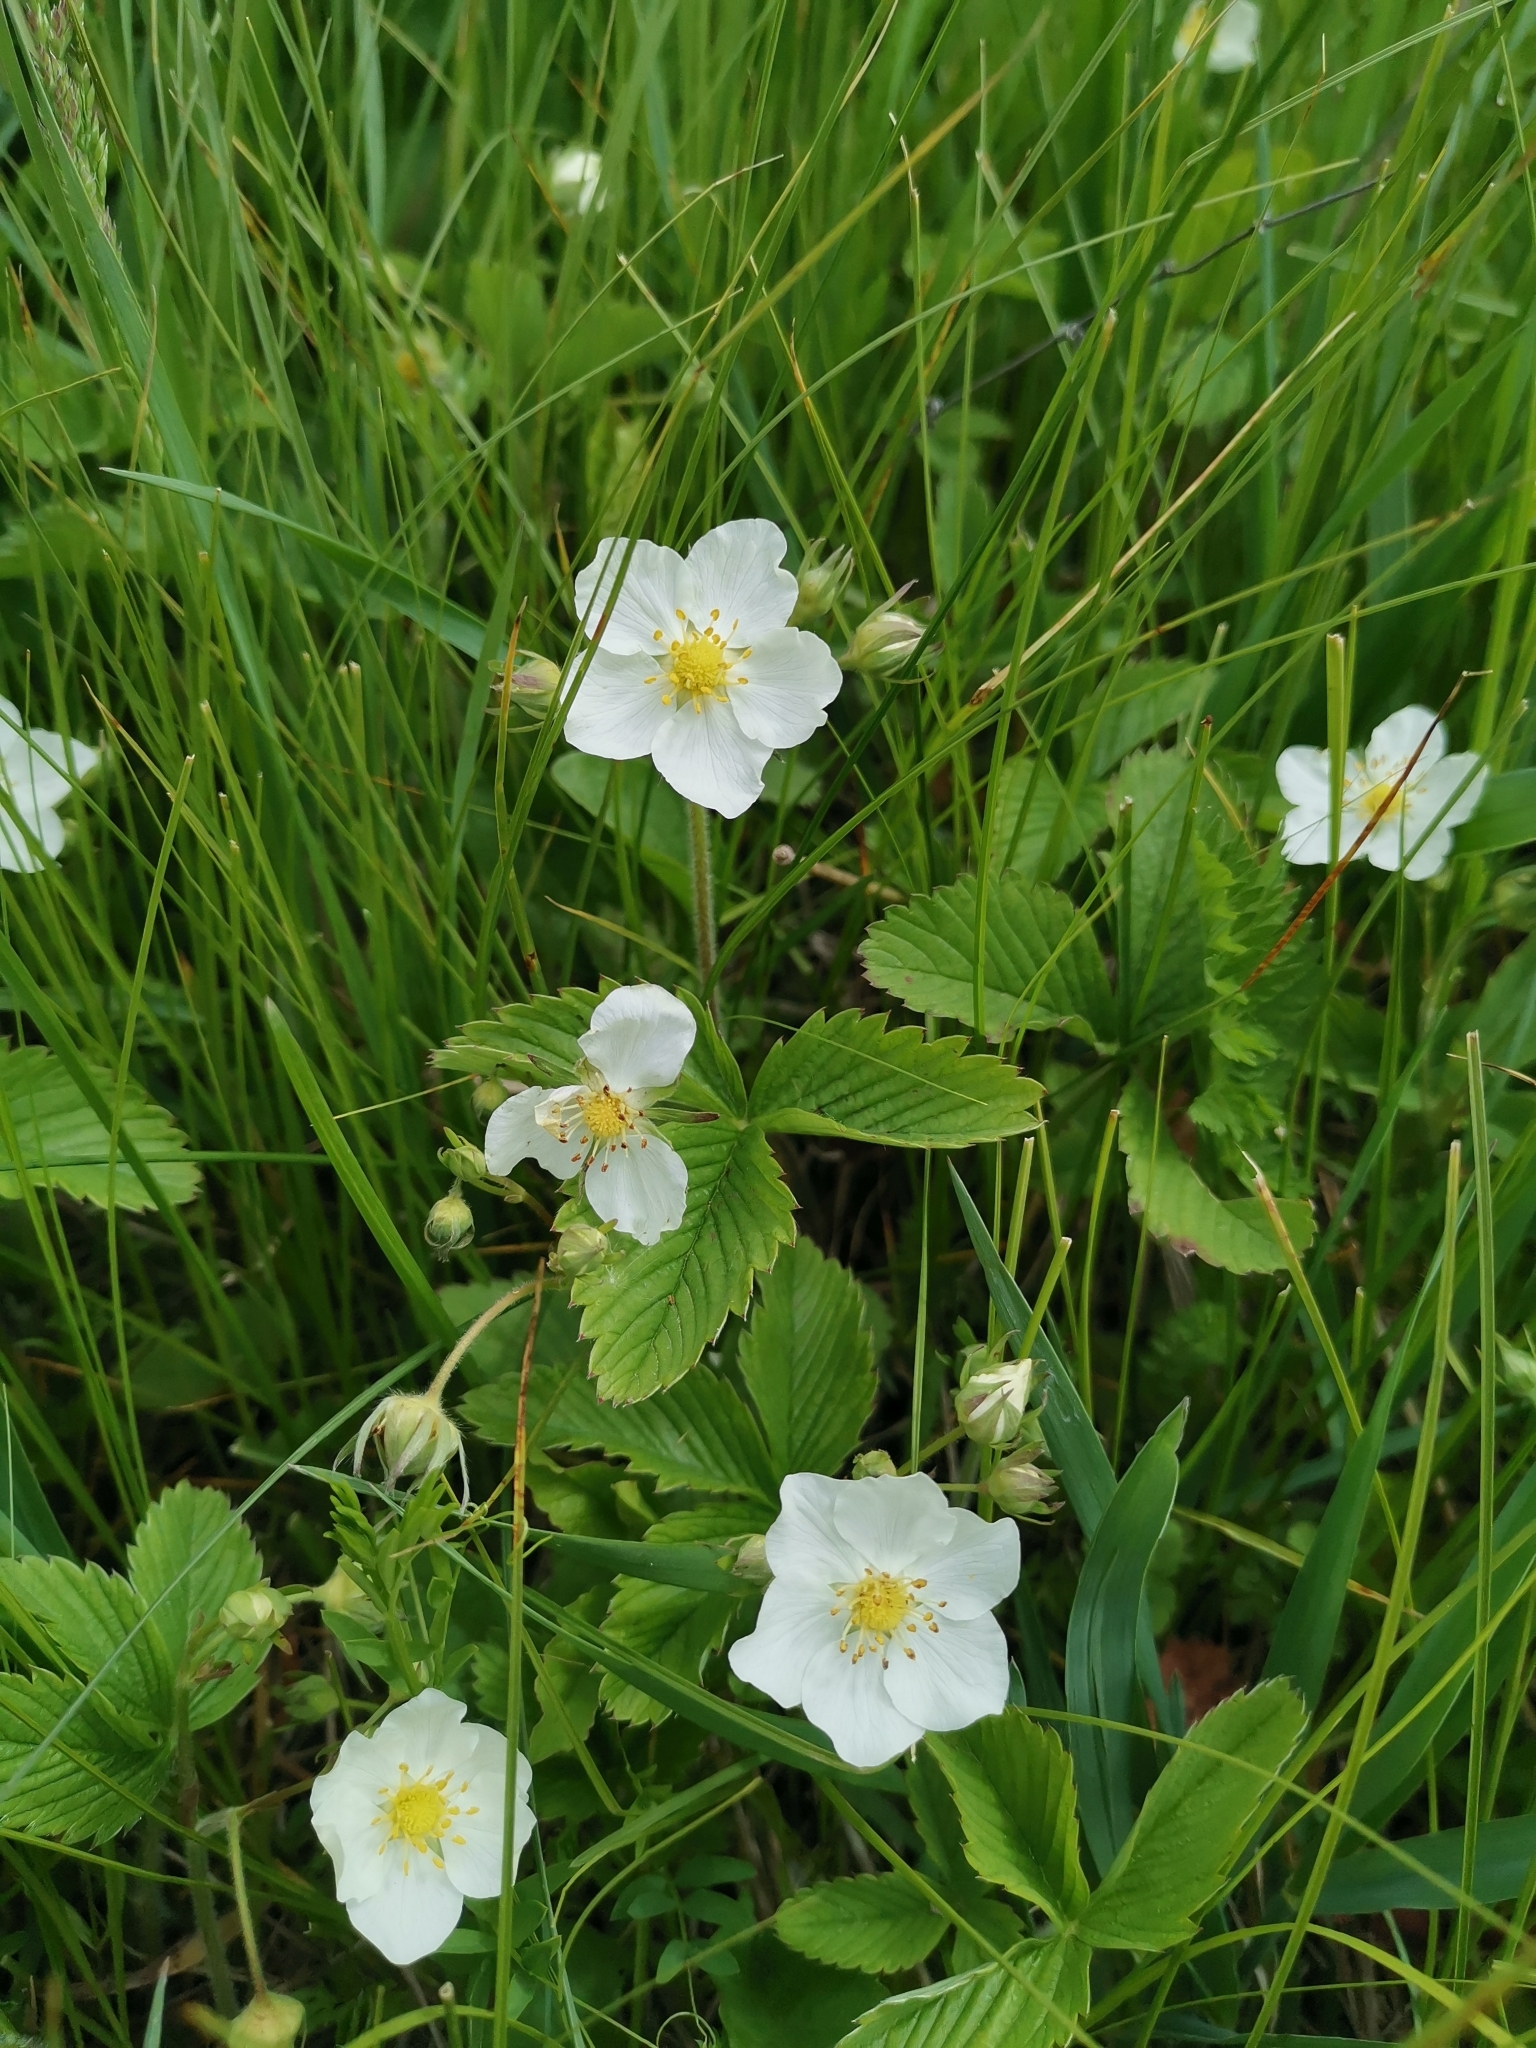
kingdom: Plantae
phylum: Tracheophyta
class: Magnoliopsida
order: Rosales
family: Rosaceae
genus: Fragaria
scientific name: Fragaria viridis
